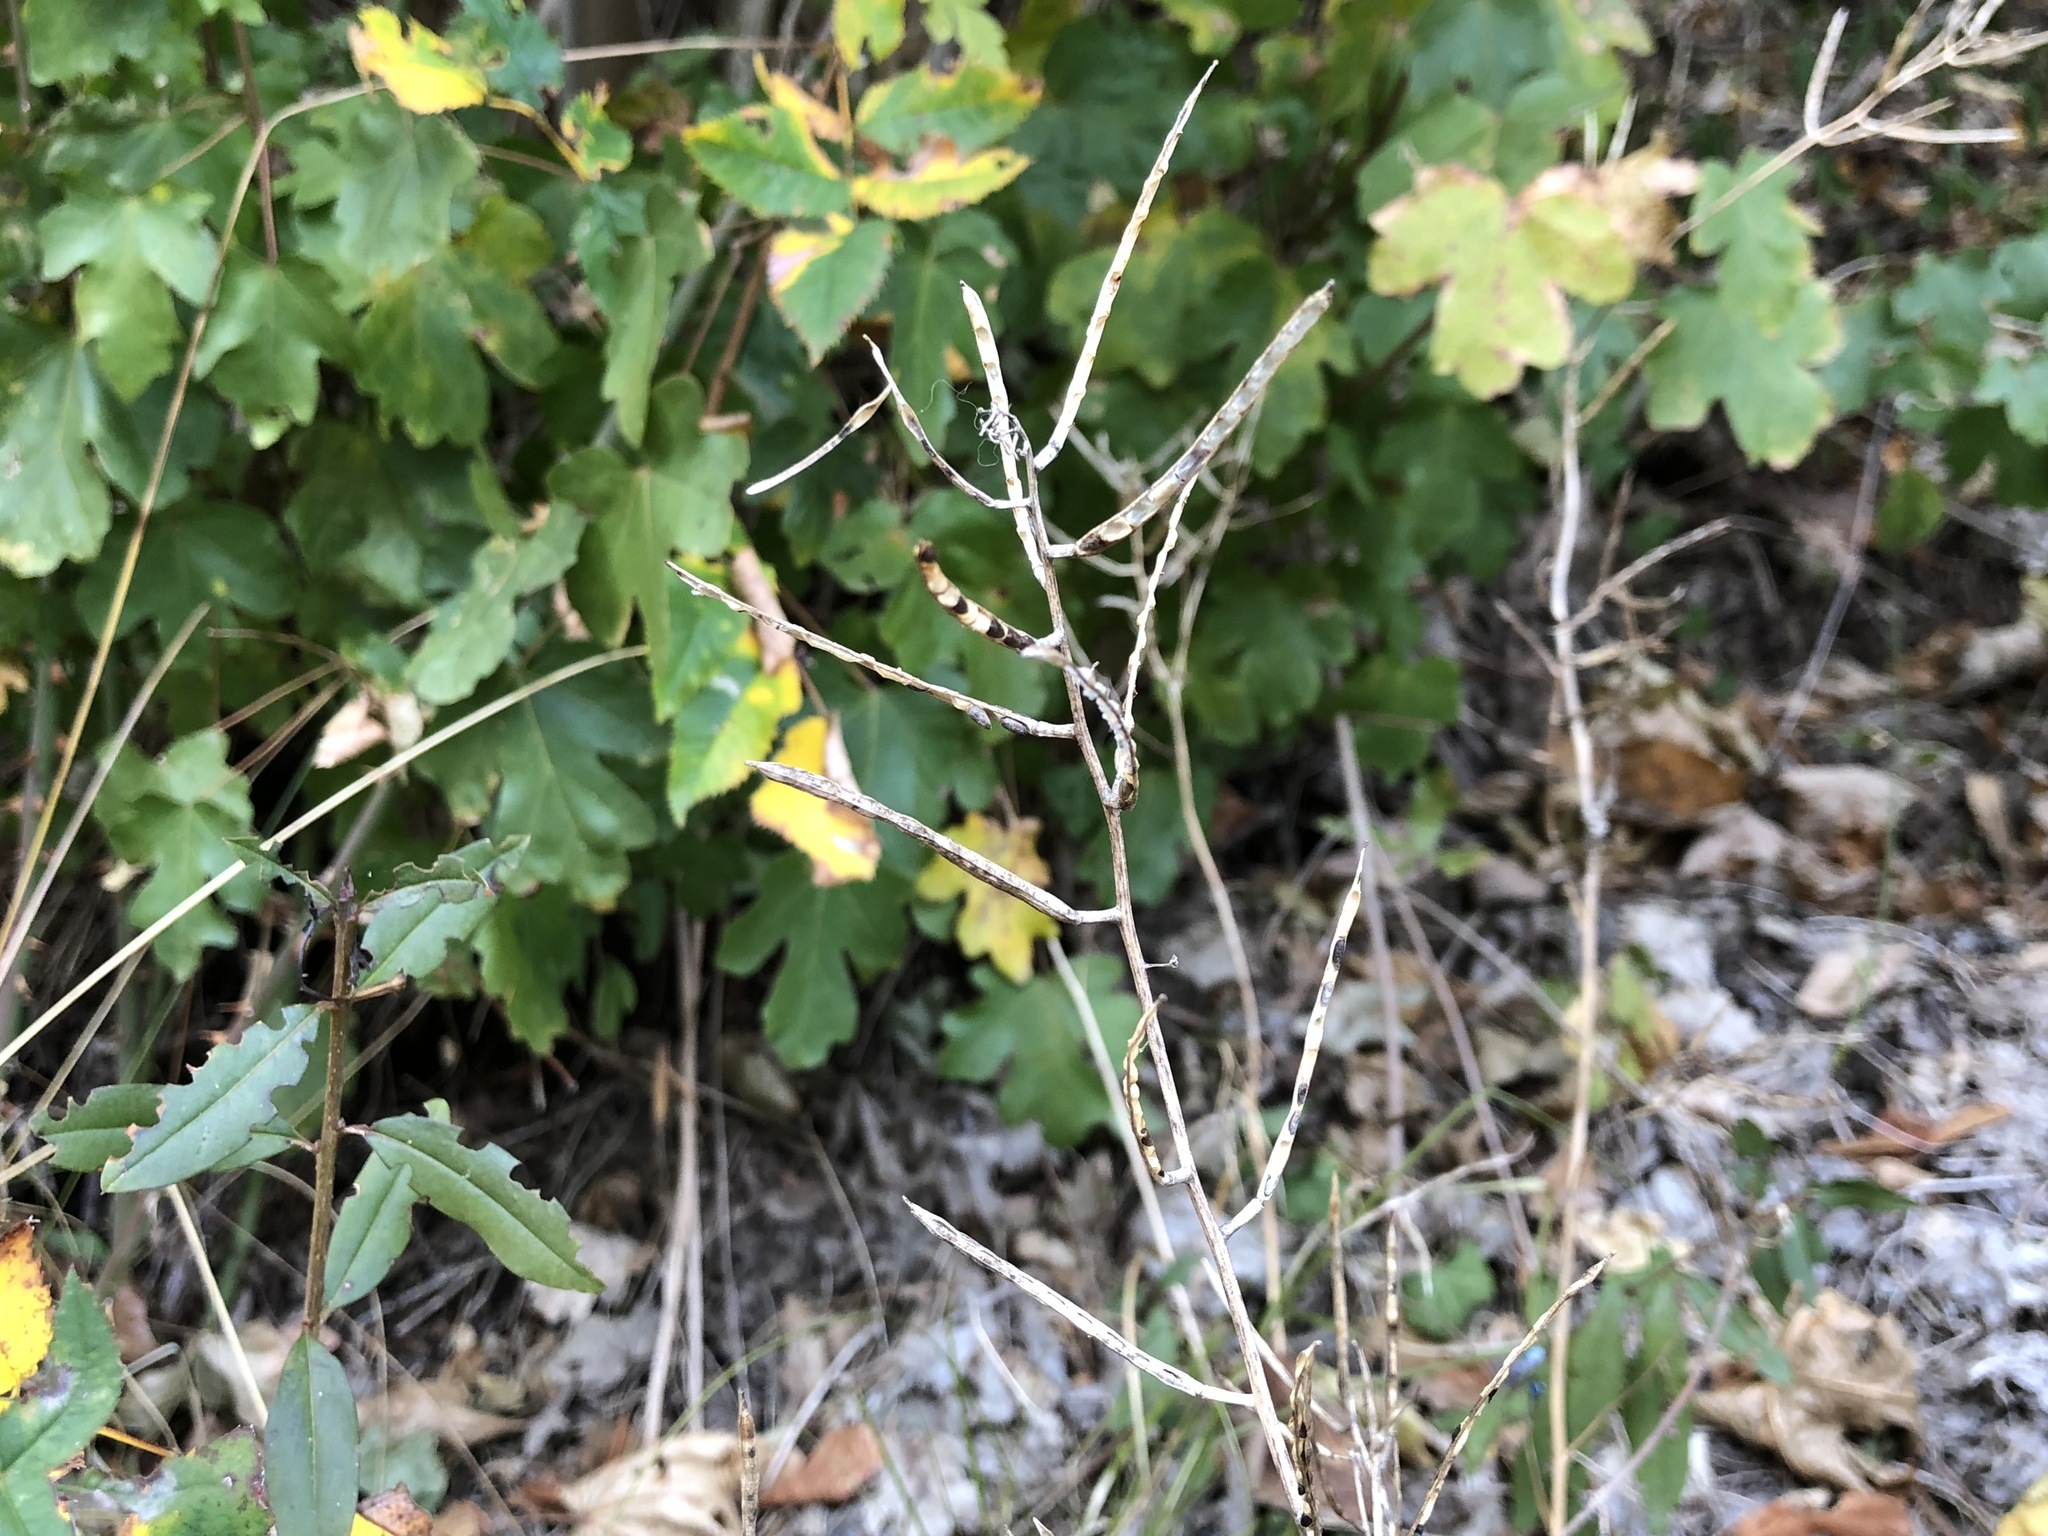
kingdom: Plantae
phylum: Tracheophyta
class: Magnoliopsida
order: Brassicales
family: Brassicaceae
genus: Alliaria
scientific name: Alliaria petiolata
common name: Garlic mustard
